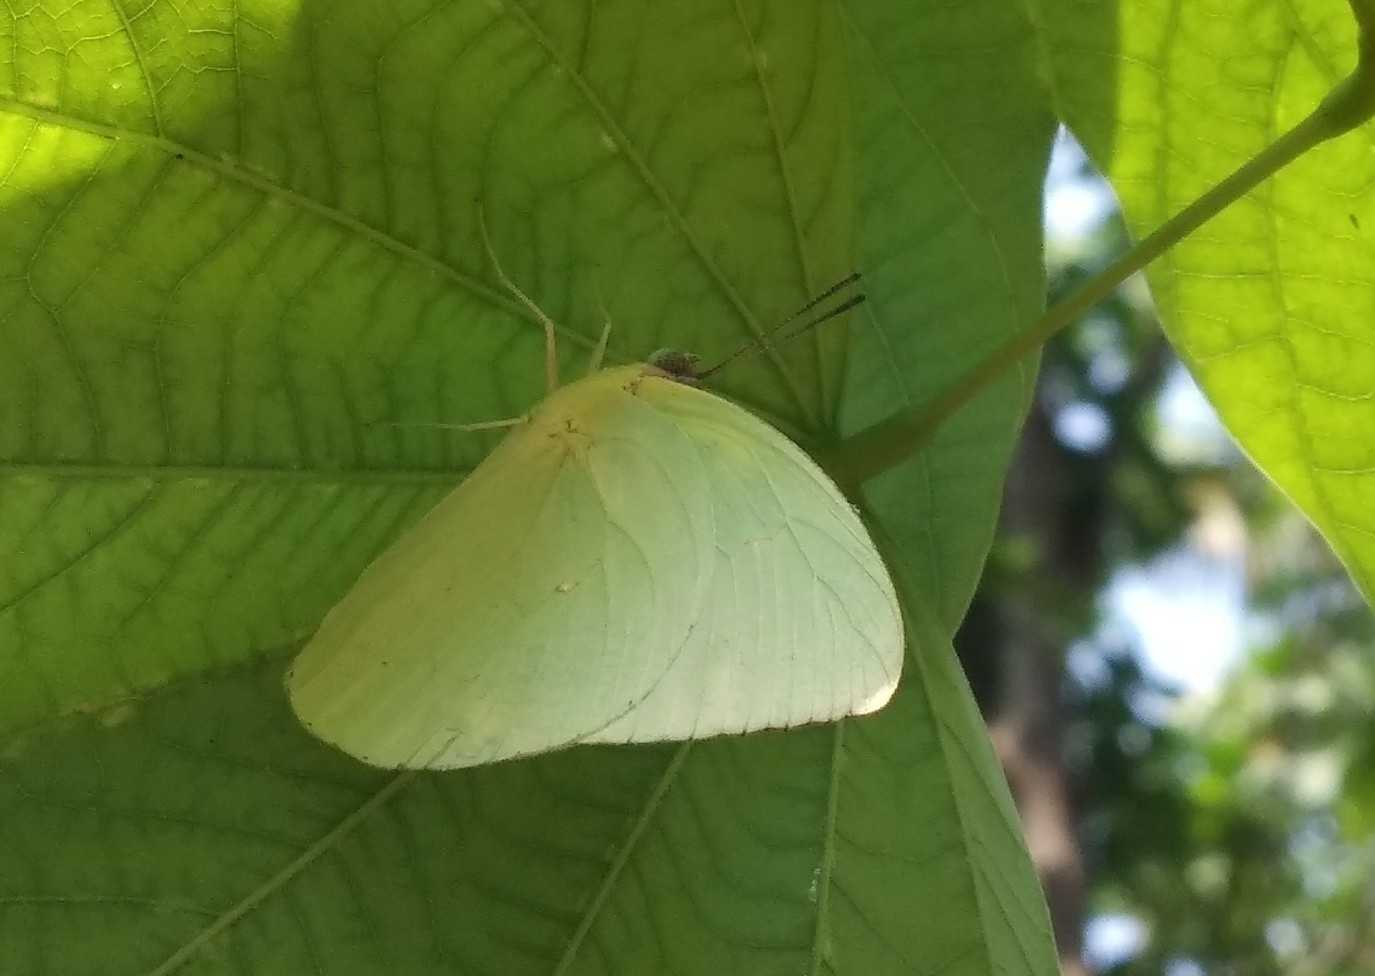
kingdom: Animalia
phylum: Arthropoda
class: Insecta
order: Lepidoptera
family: Pieridae
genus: Catopsilia
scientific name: Catopsilia pomona
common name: Common emigrant
